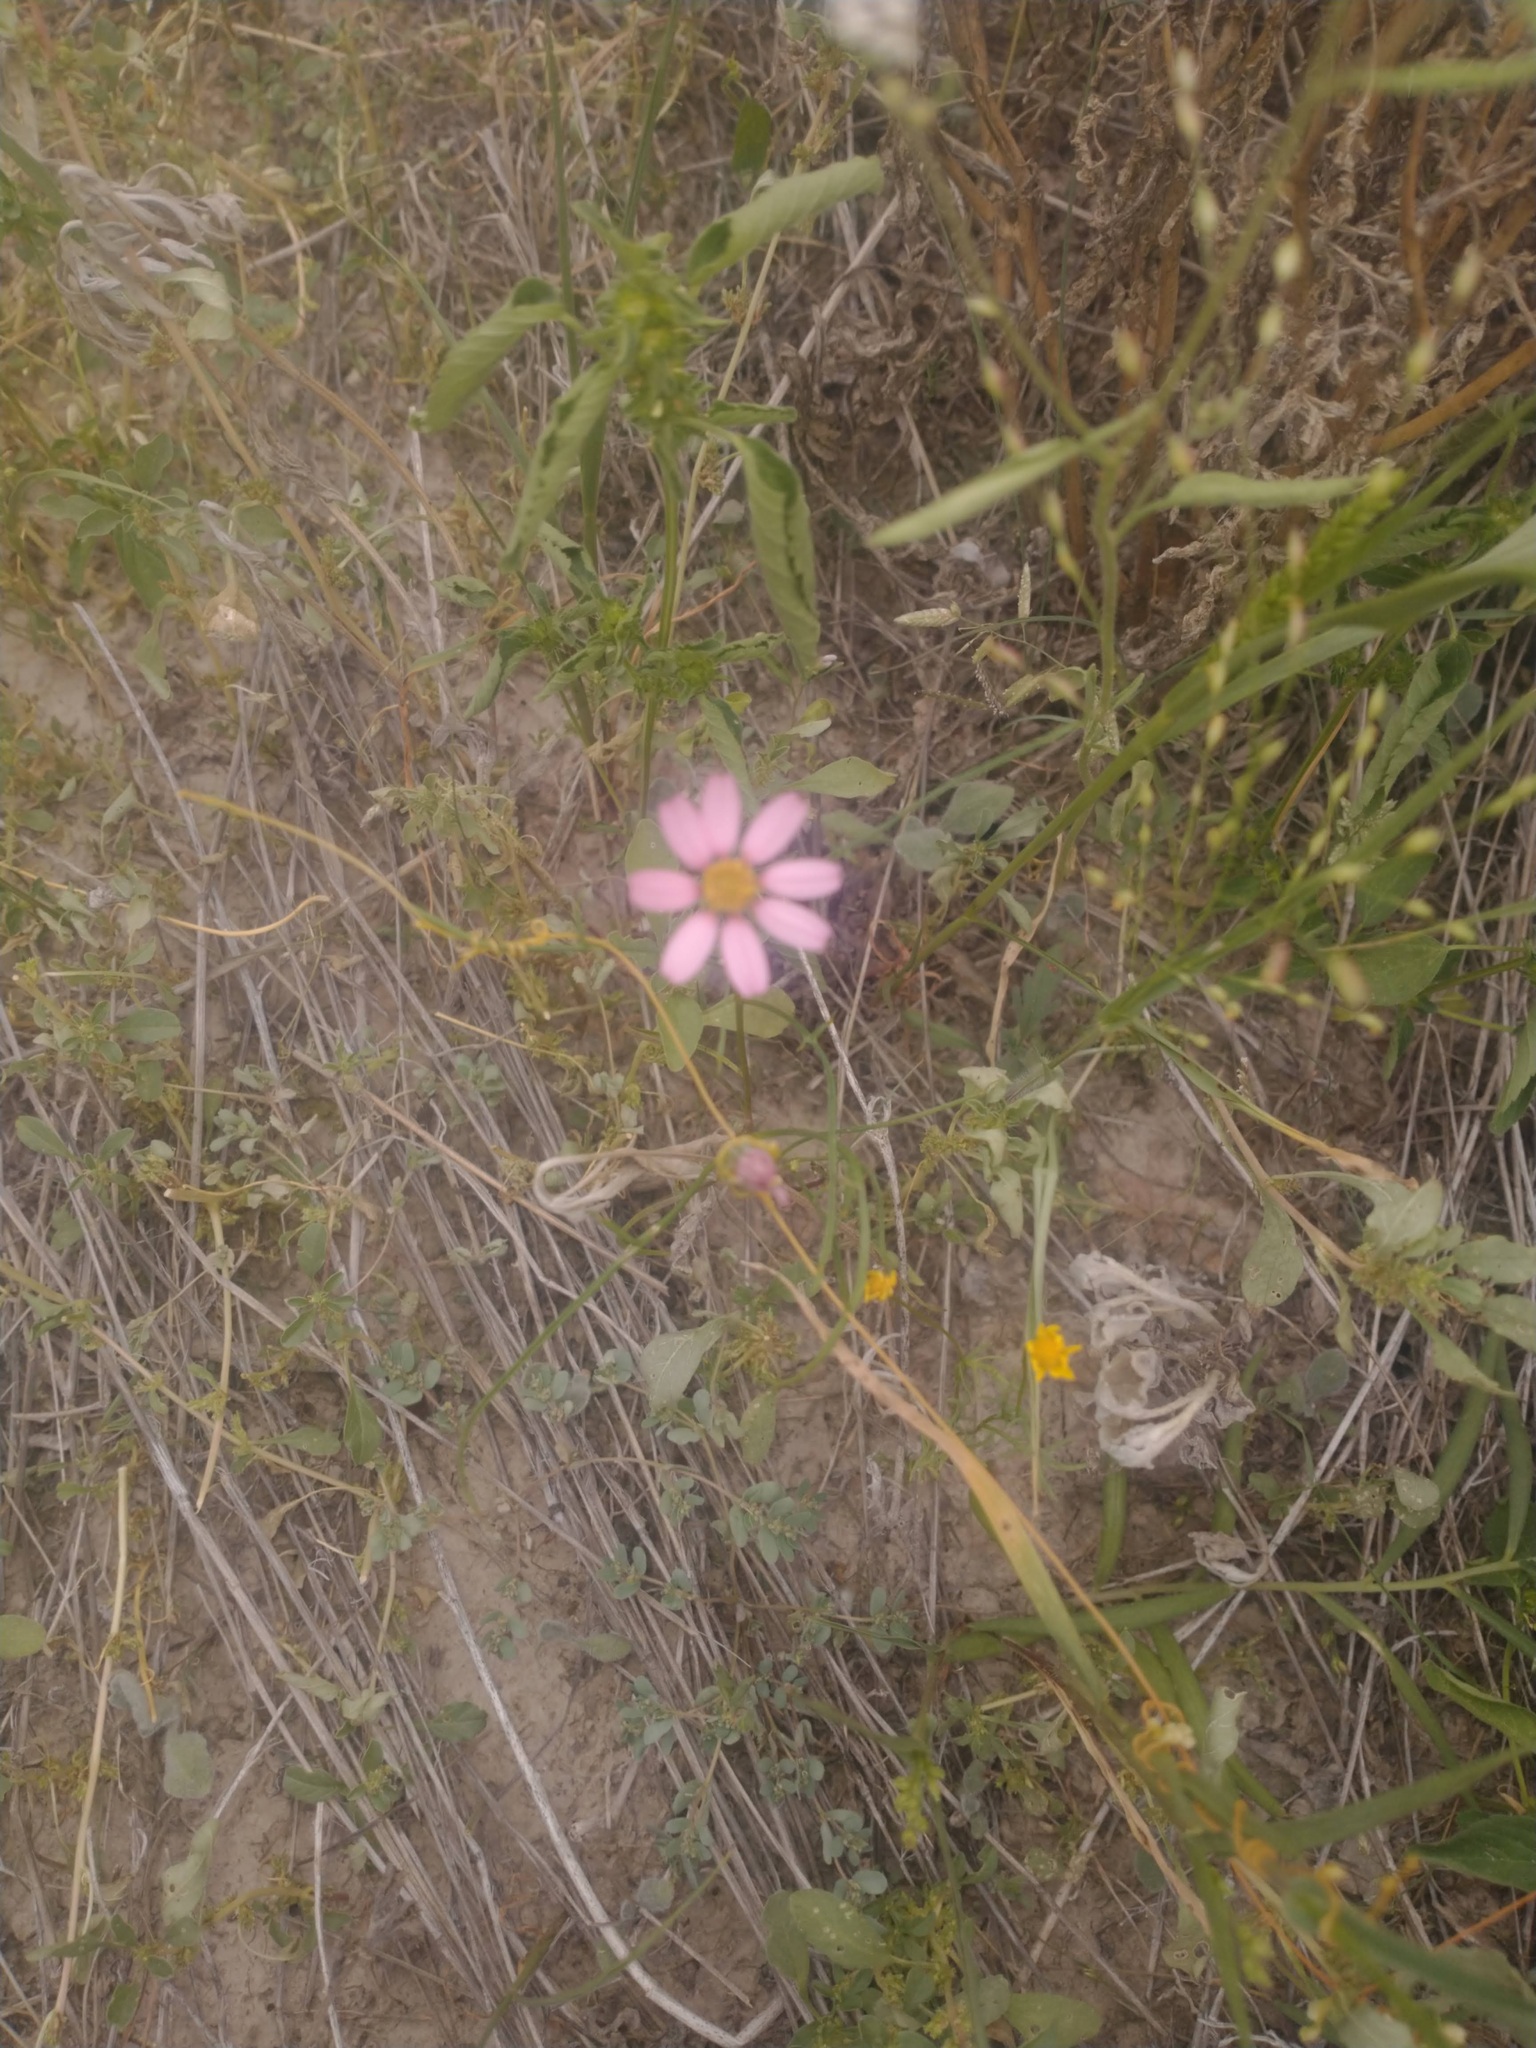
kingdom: Plantae
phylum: Tracheophyta
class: Magnoliopsida
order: Asterales
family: Asteraceae
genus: Nicolletia
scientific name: Nicolletia edwardsii
